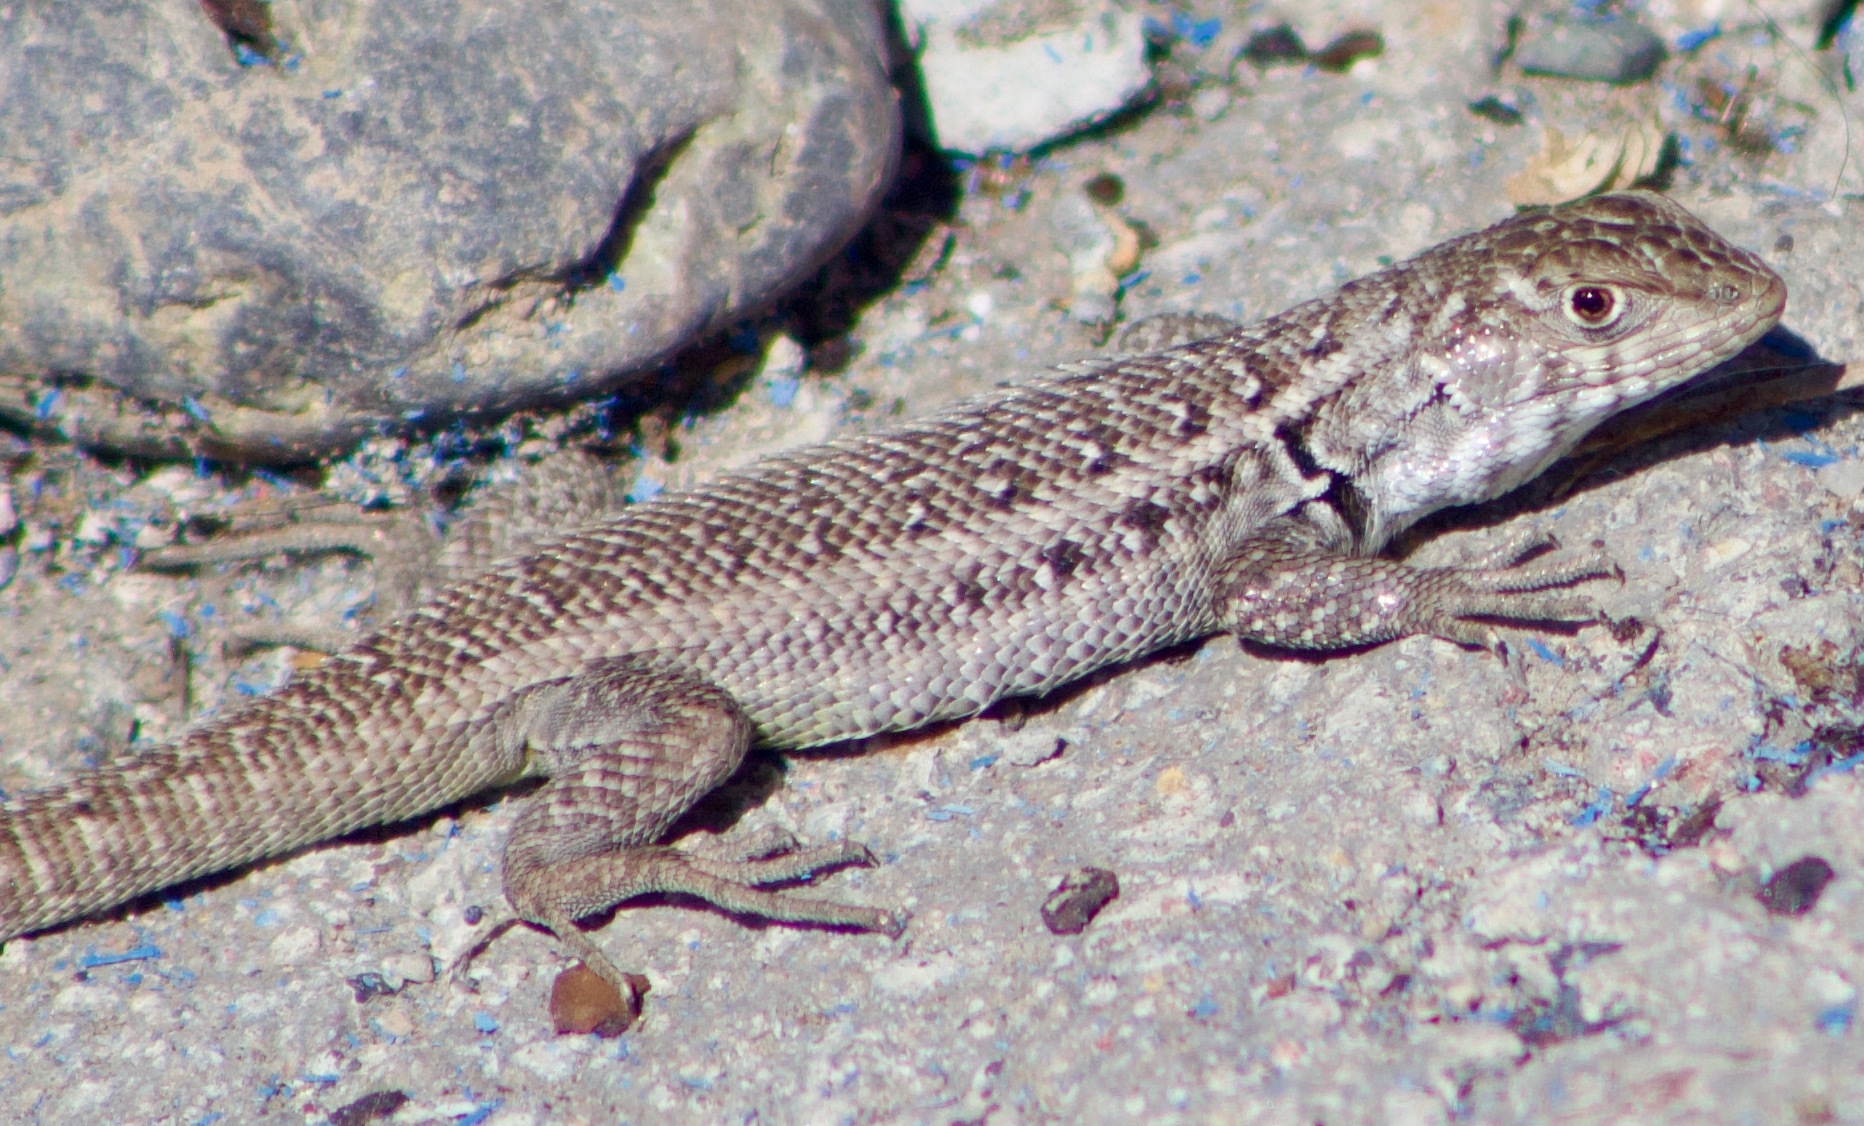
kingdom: Animalia
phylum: Chordata
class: Squamata
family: Liolaemidae
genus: Liolaemus
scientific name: Liolaemus zapallarensis
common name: Zapallaren tree iguana
